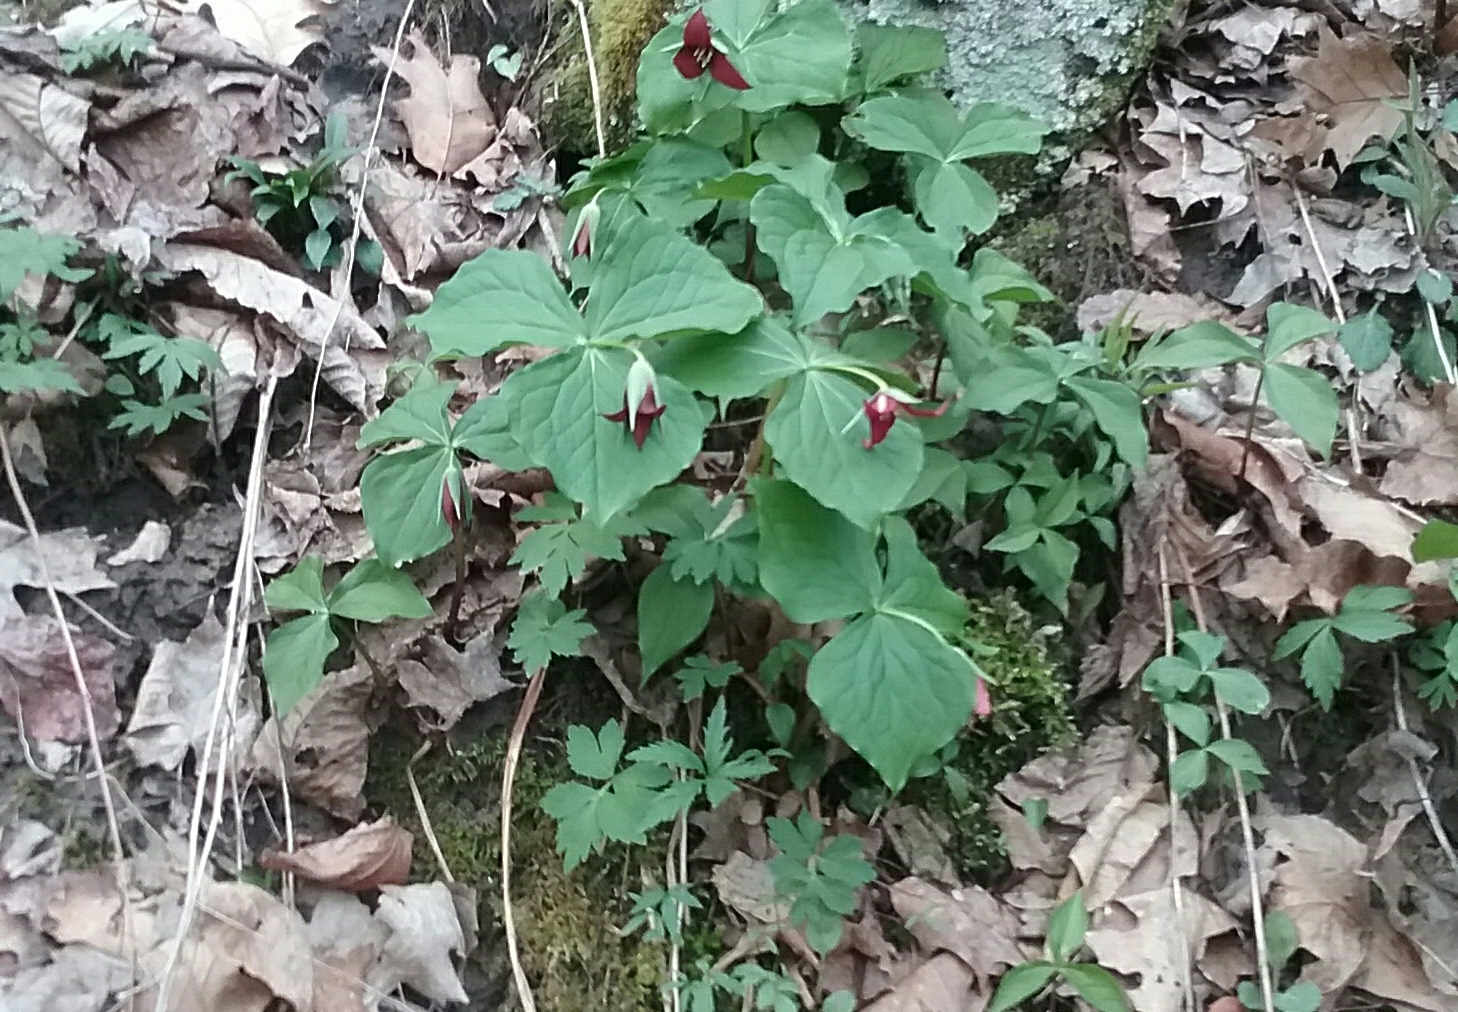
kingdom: Plantae
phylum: Tracheophyta
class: Liliopsida
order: Liliales
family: Melanthiaceae
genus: Trillium
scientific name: Trillium erectum
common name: Purple trillium
